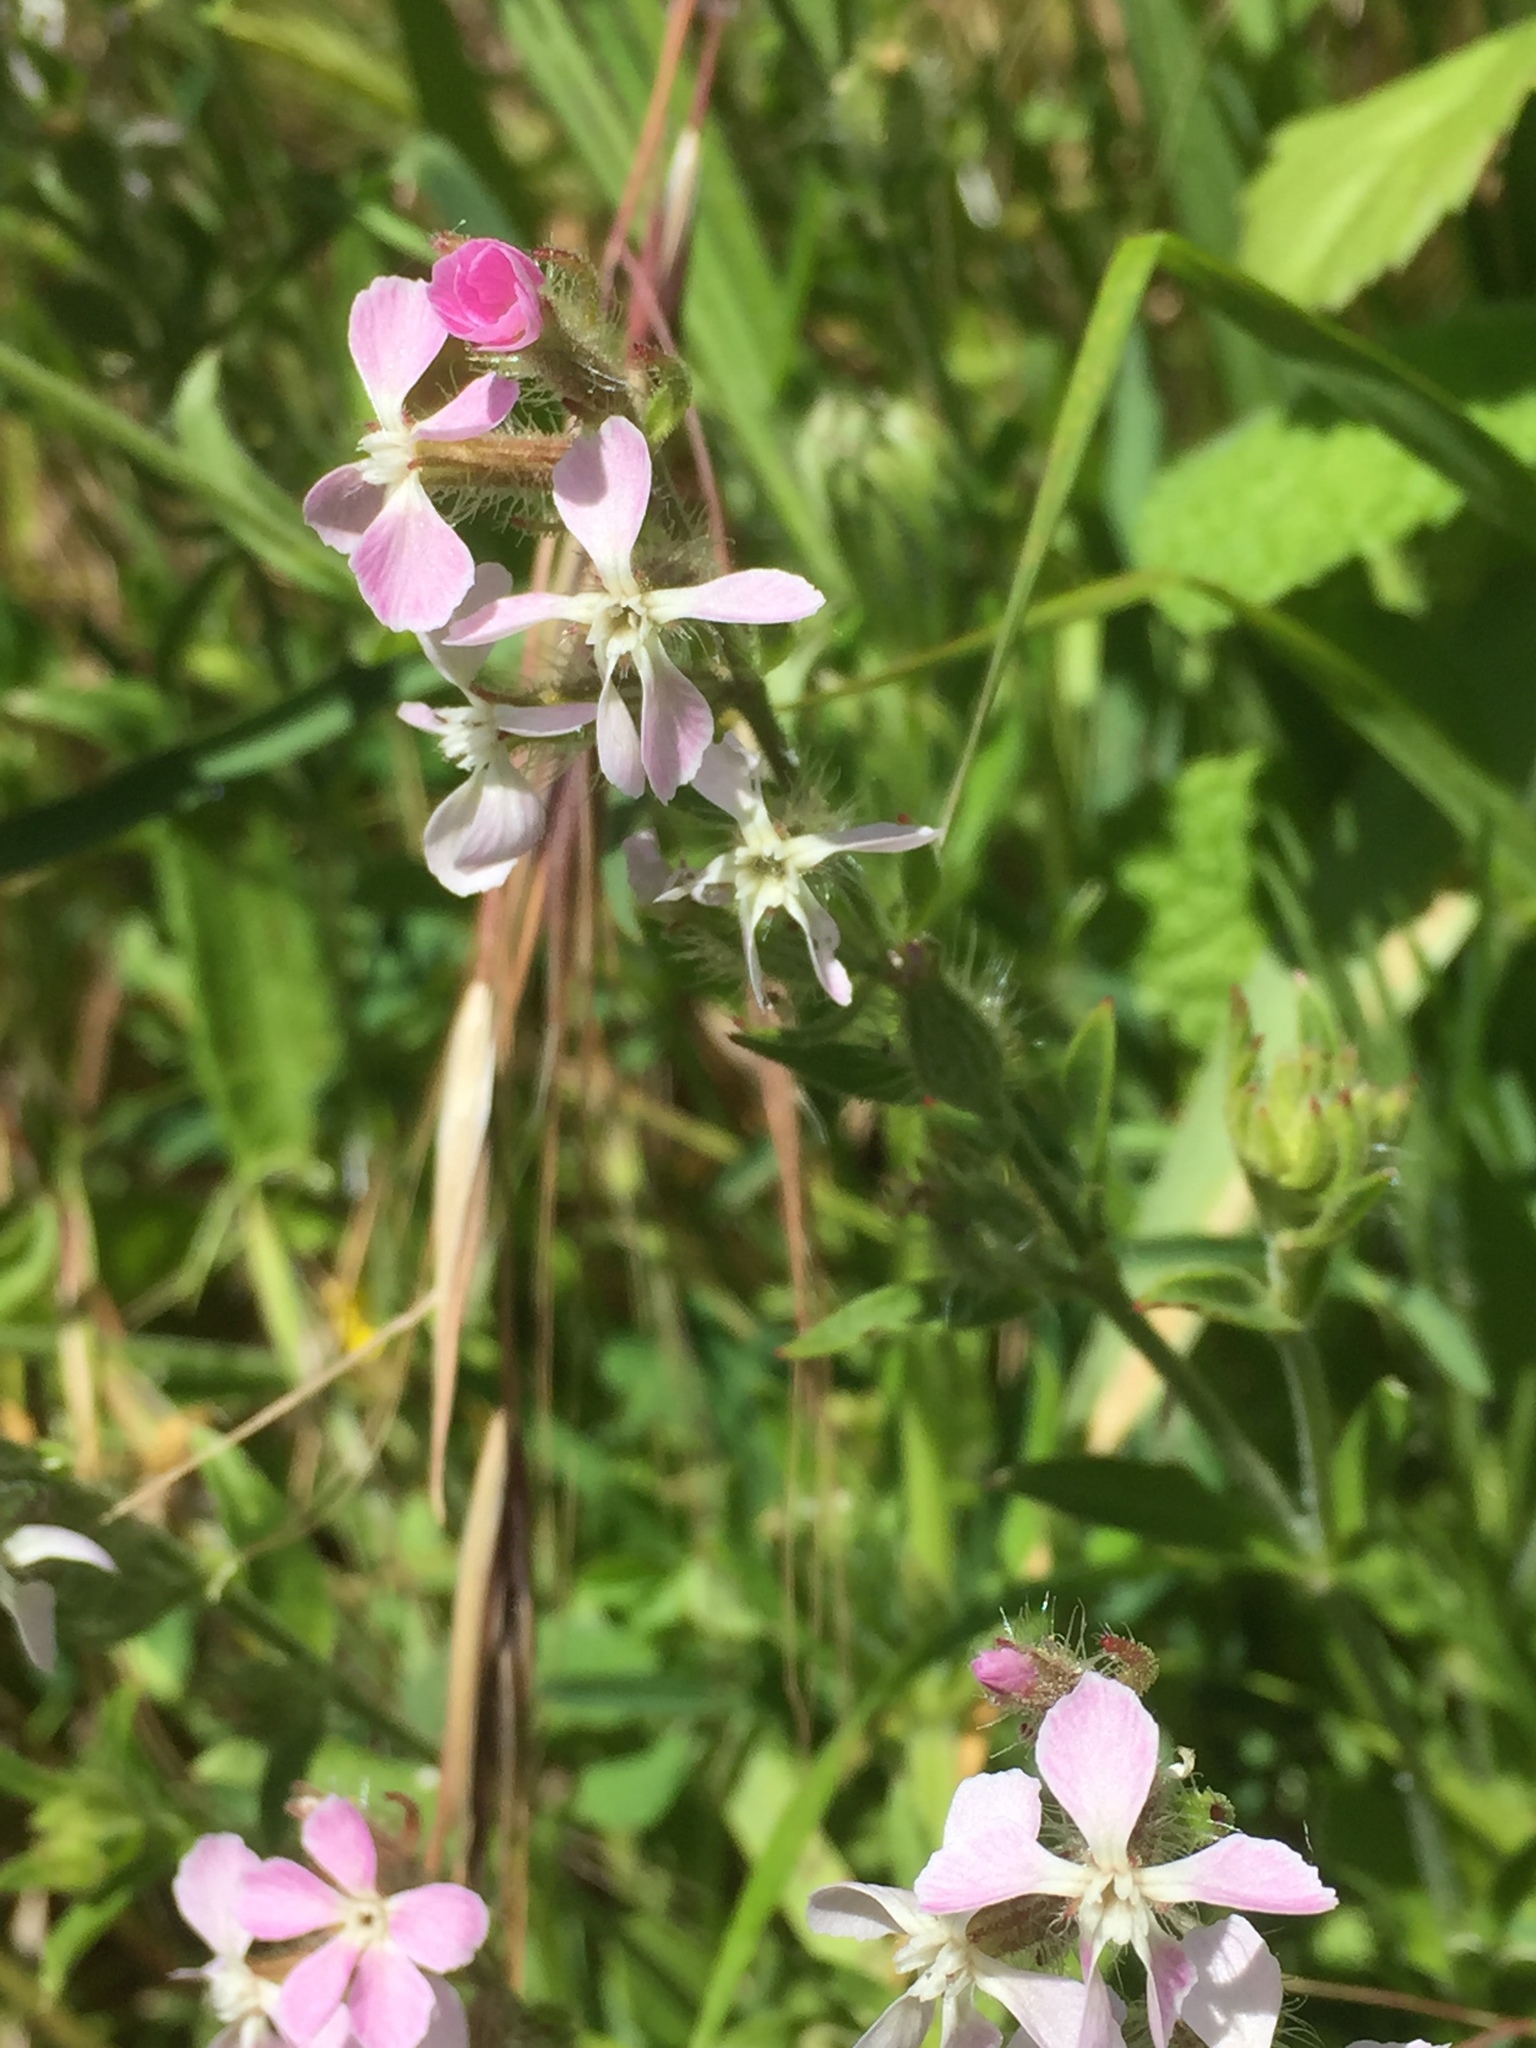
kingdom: Plantae
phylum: Tracheophyta
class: Magnoliopsida
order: Caryophyllales
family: Caryophyllaceae
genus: Silene
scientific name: Silene gallica
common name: Small-flowered catchfly
